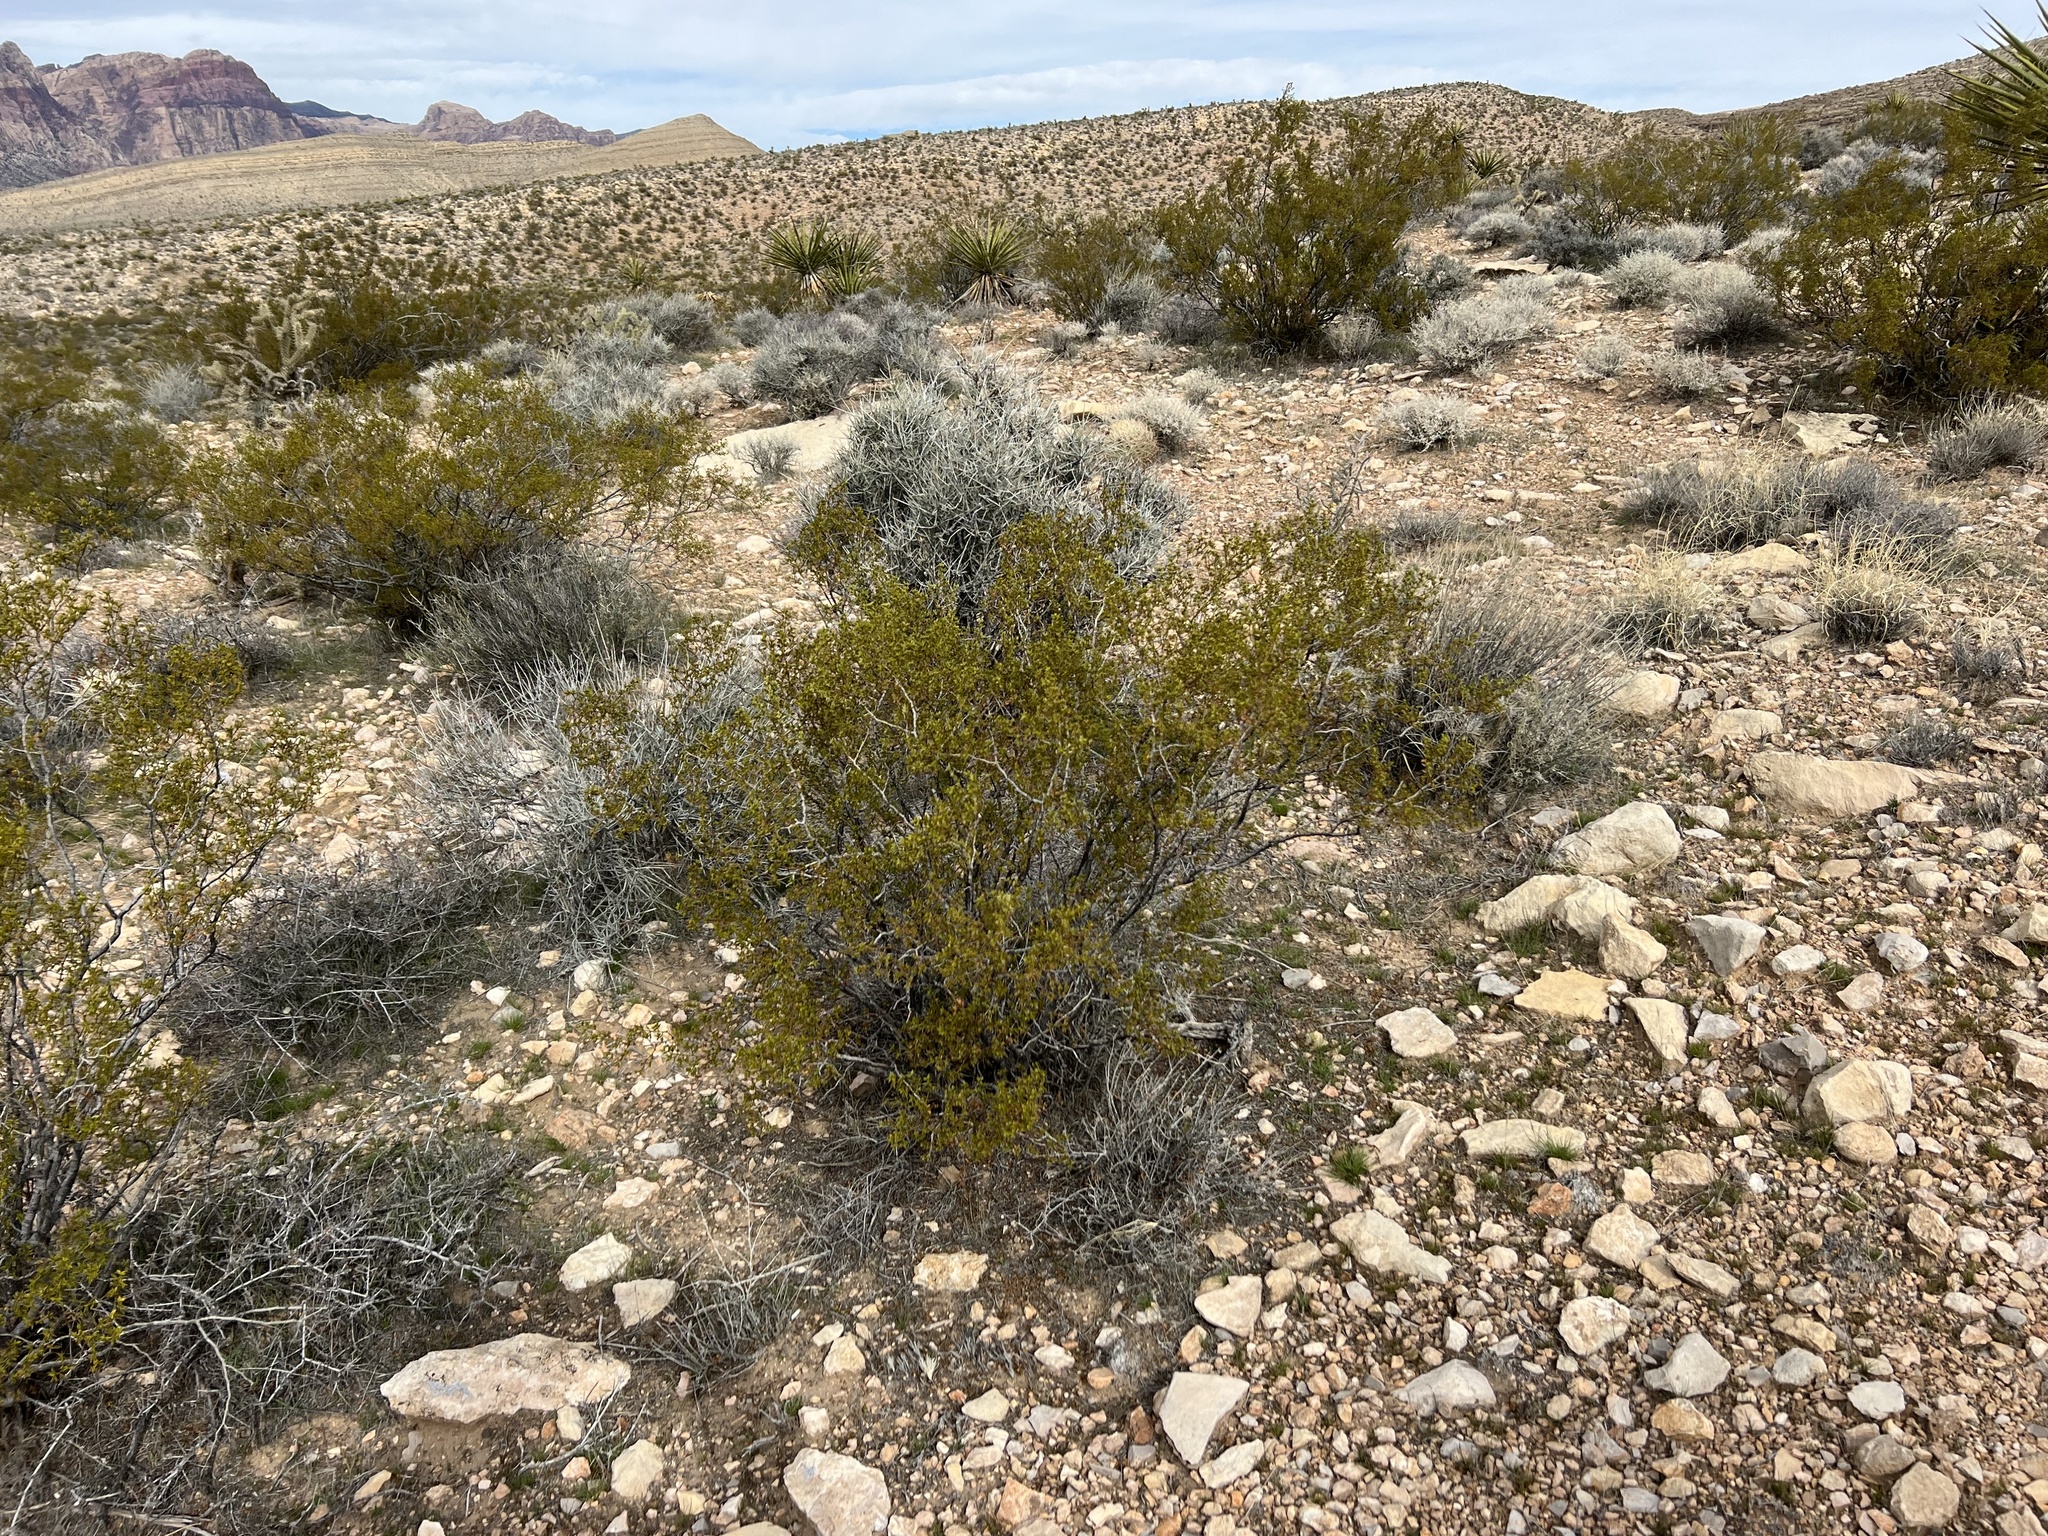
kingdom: Plantae
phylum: Tracheophyta
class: Magnoliopsida
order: Zygophyllales
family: Zygophyllaceae
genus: Larrea
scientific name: Larrea tridentata
